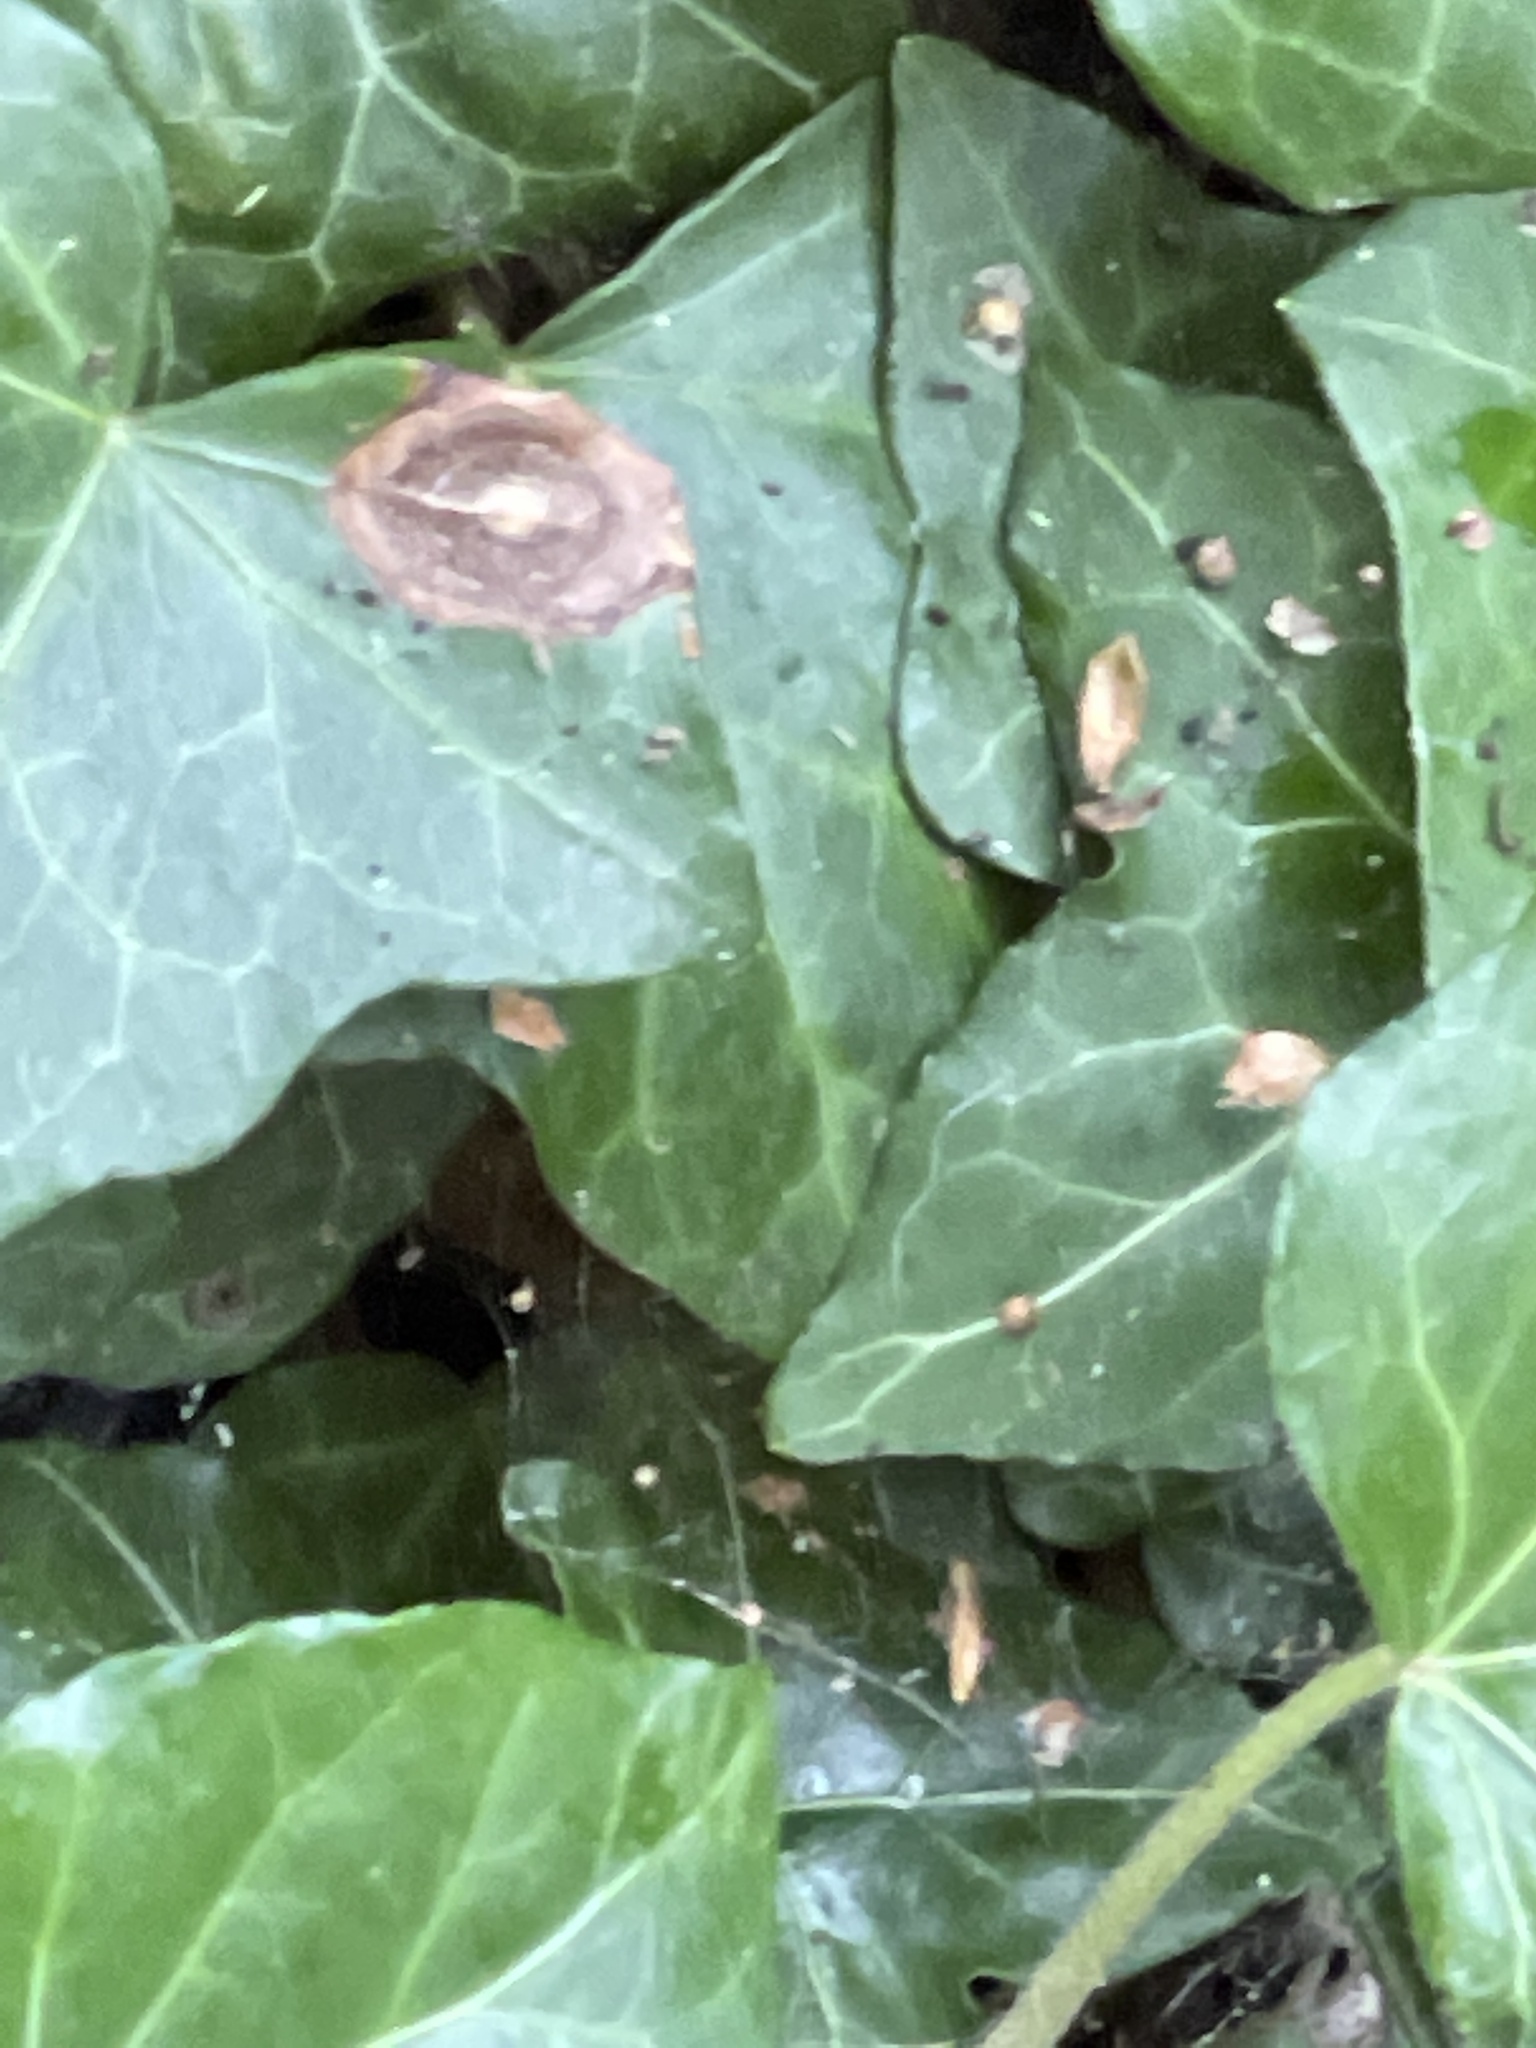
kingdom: Fungi
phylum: Ascomycota
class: Dothideomycetes
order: Pleosporales
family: Didymellaceae
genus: Boeremia
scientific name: Boeremia hedericola
